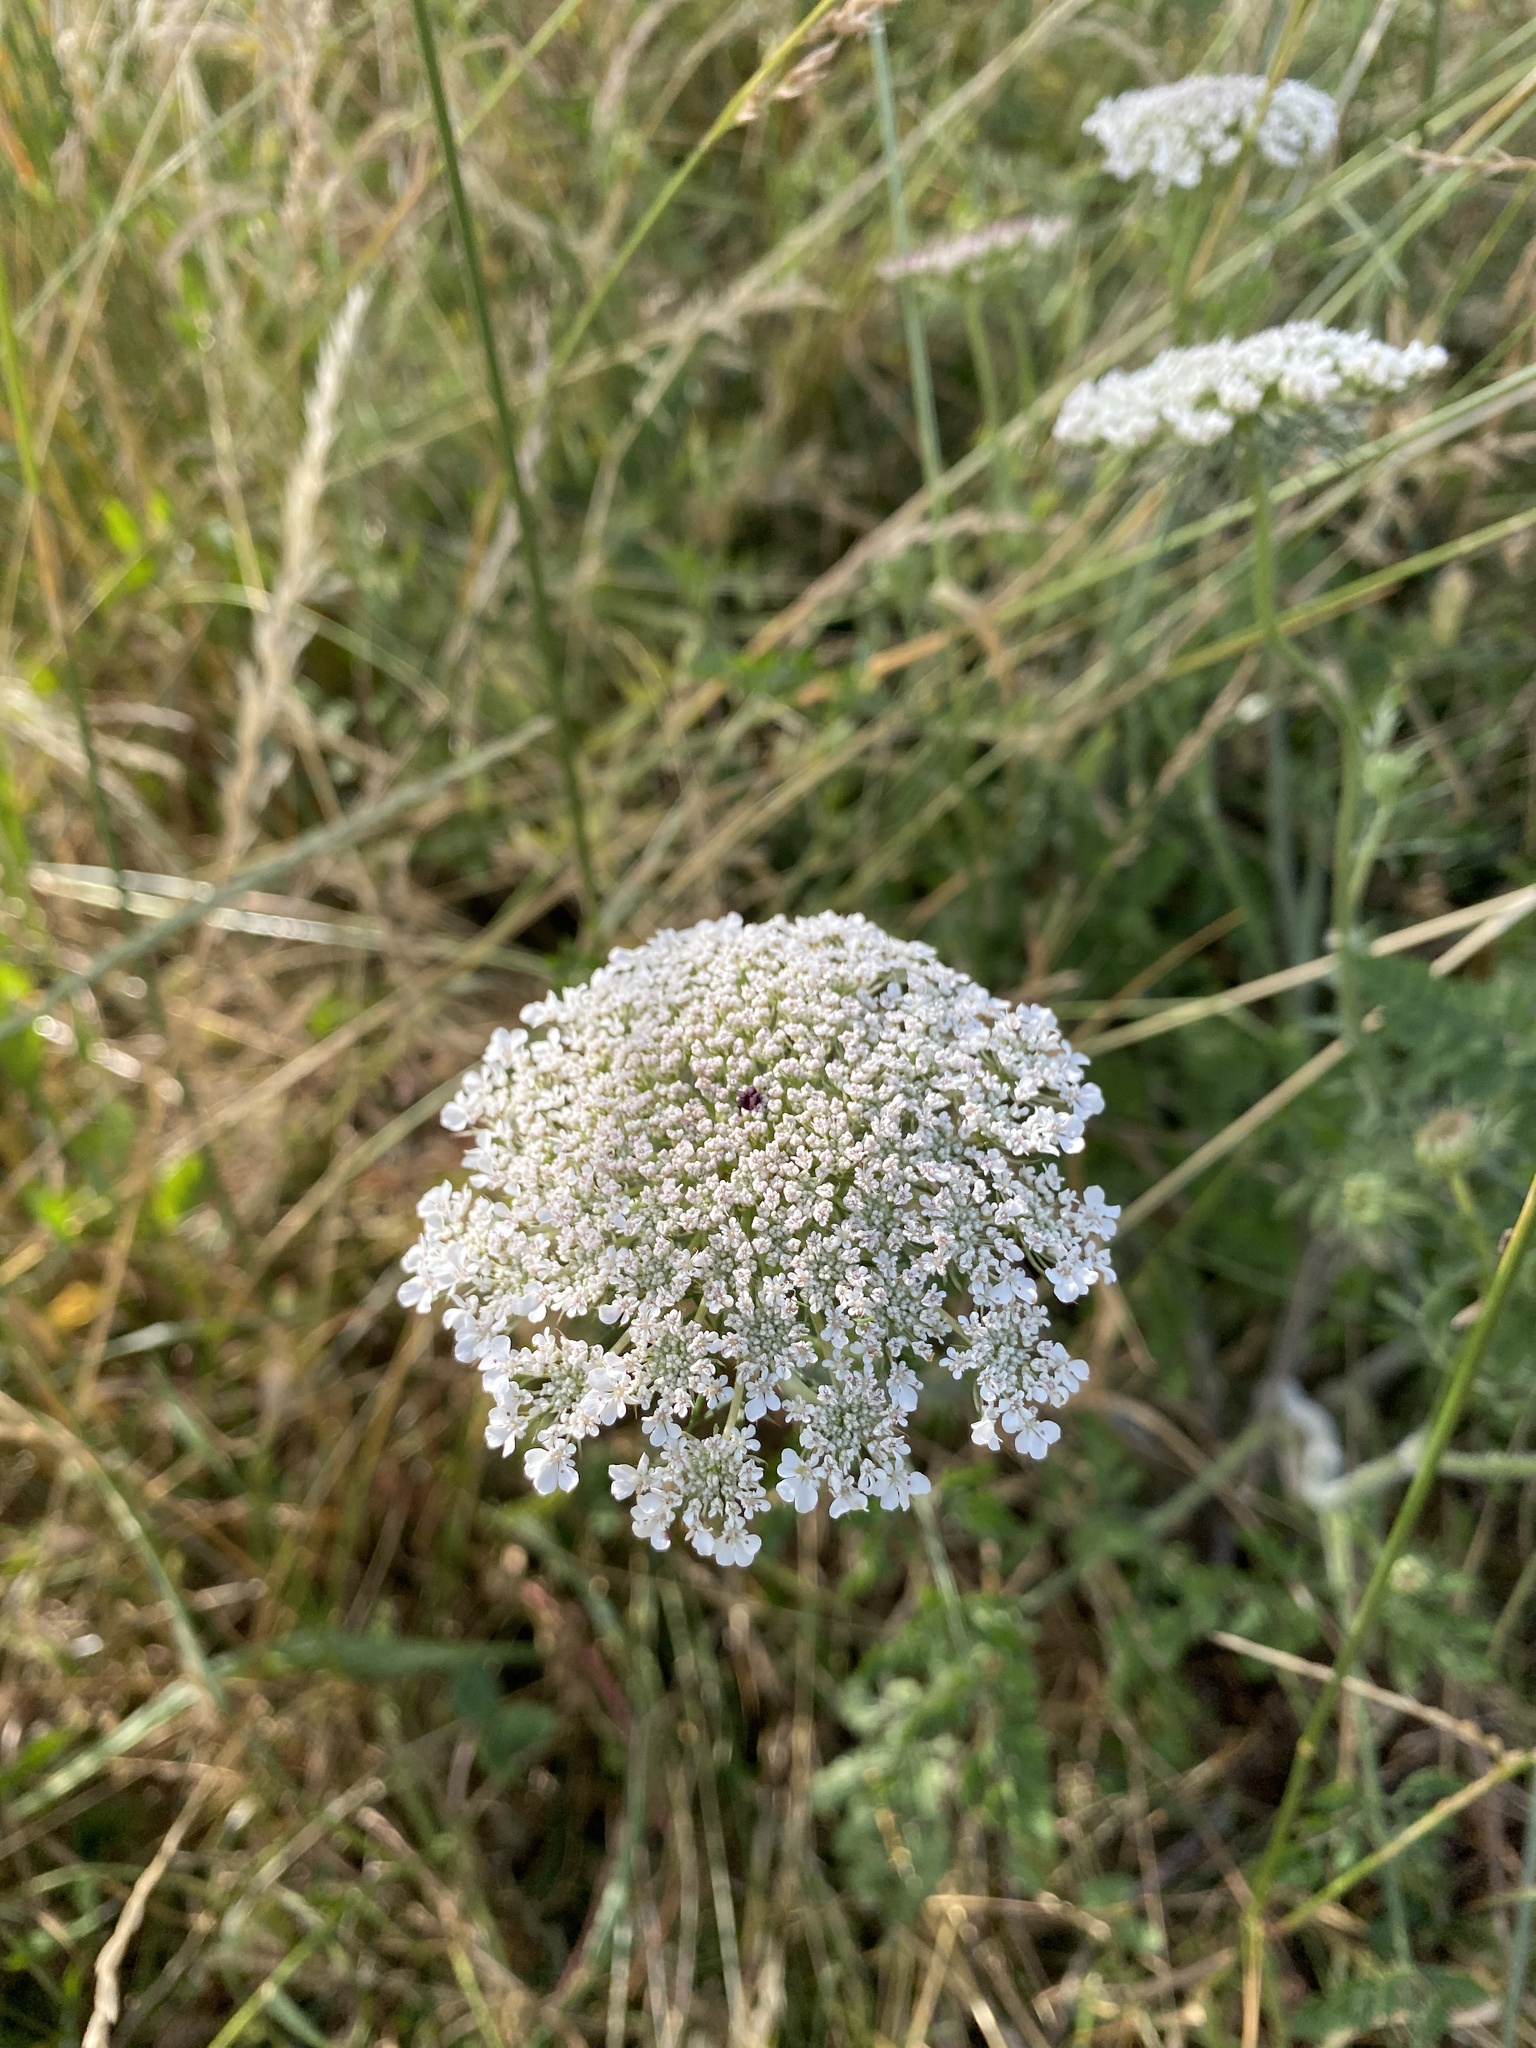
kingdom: Plantae
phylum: Tracheophyta
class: Magnoliopsida
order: Apiales
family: Apiaceae
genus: Daucus
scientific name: Daucus carota
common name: Wild carrot
